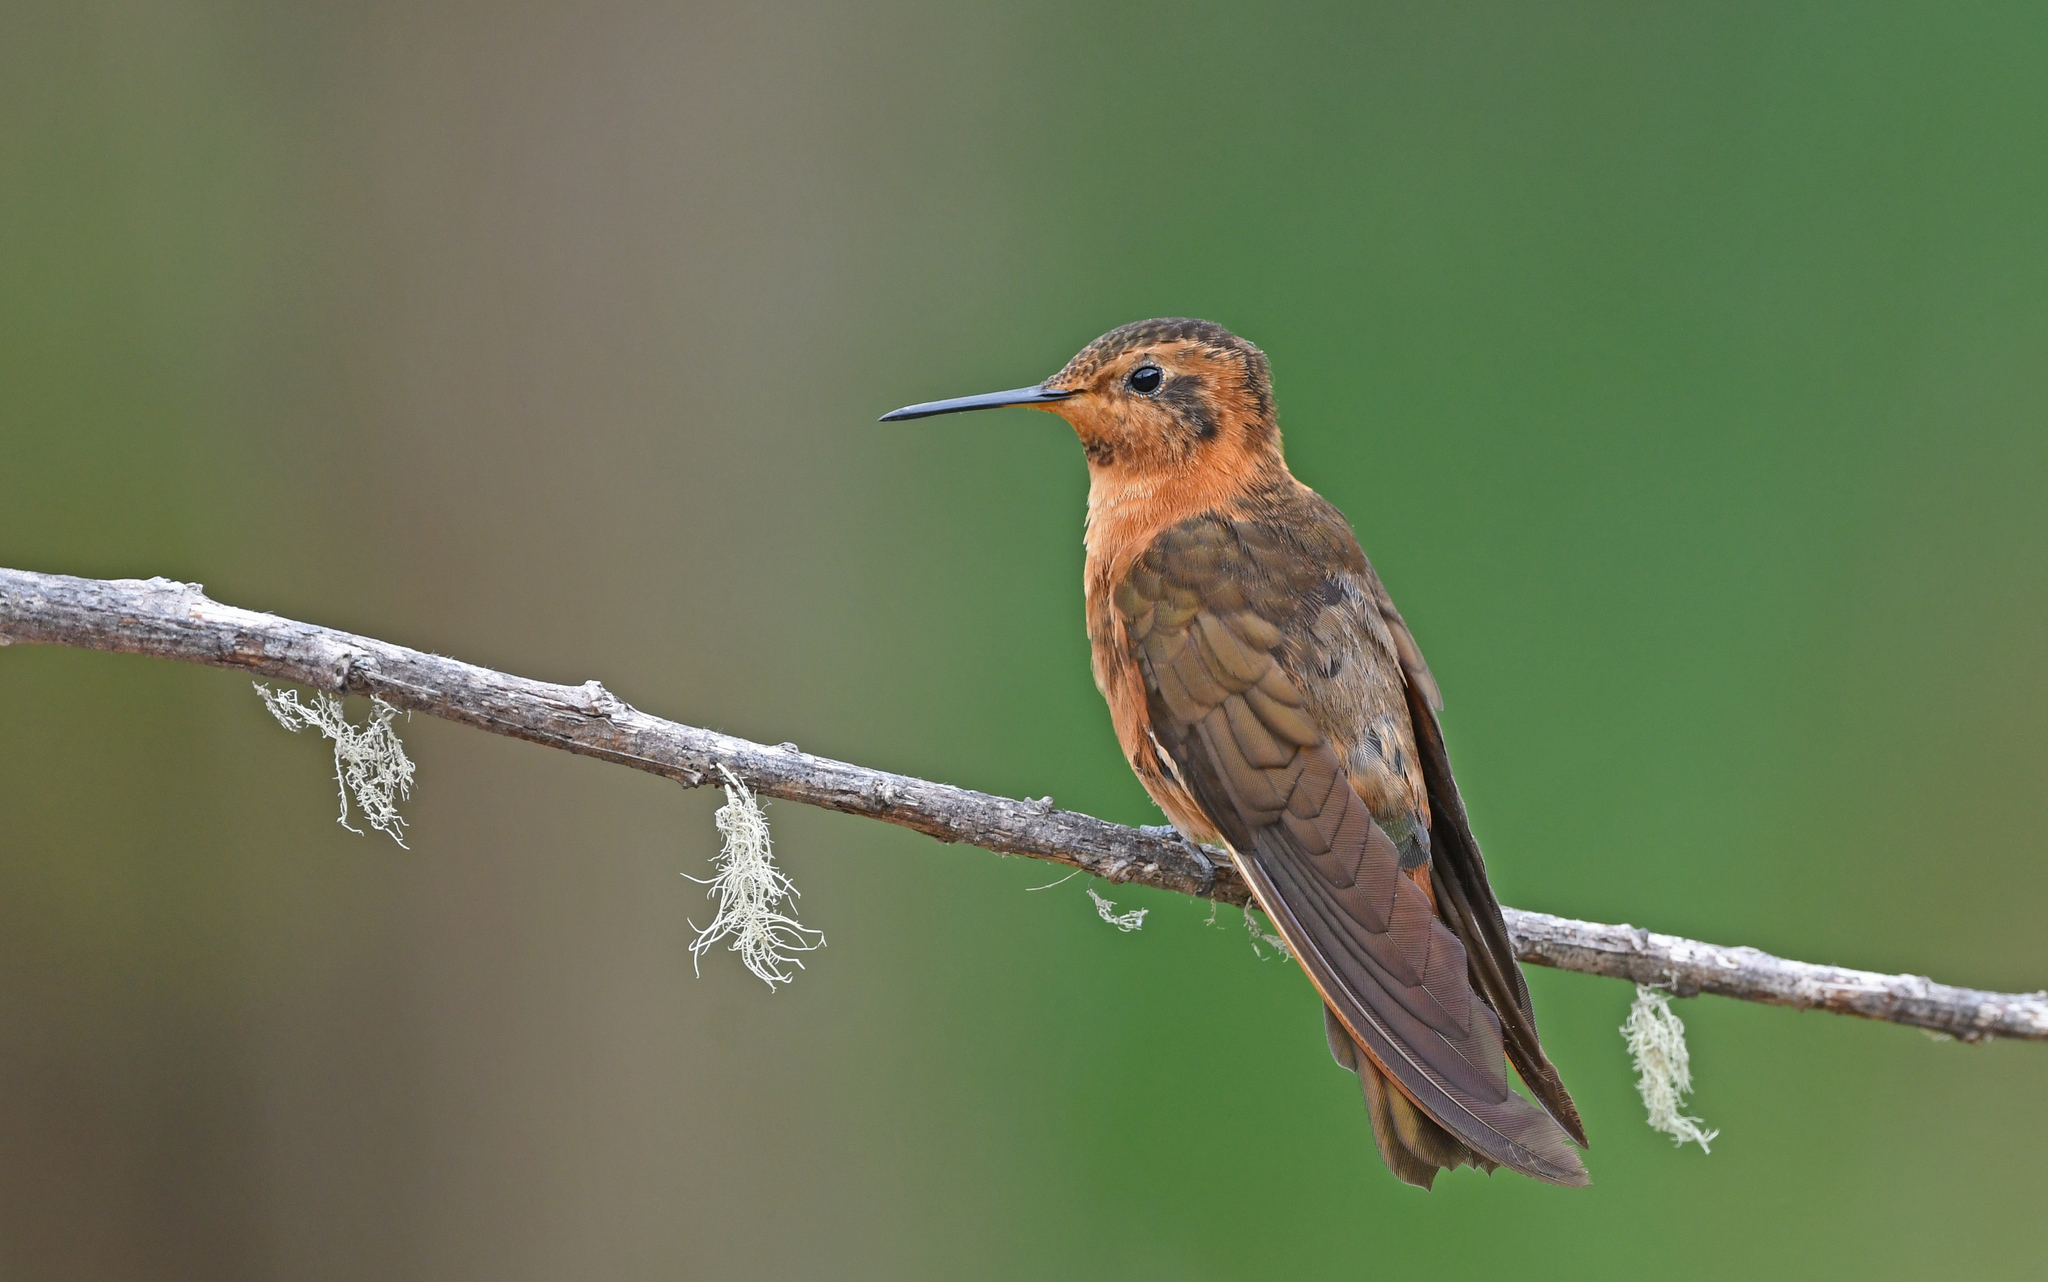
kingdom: Animalia
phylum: Chordata
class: Aves
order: Apodiformes
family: Trochilidae
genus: Aglaeactis
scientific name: Aglaeactis cupripennis
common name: Shining sunbeam
